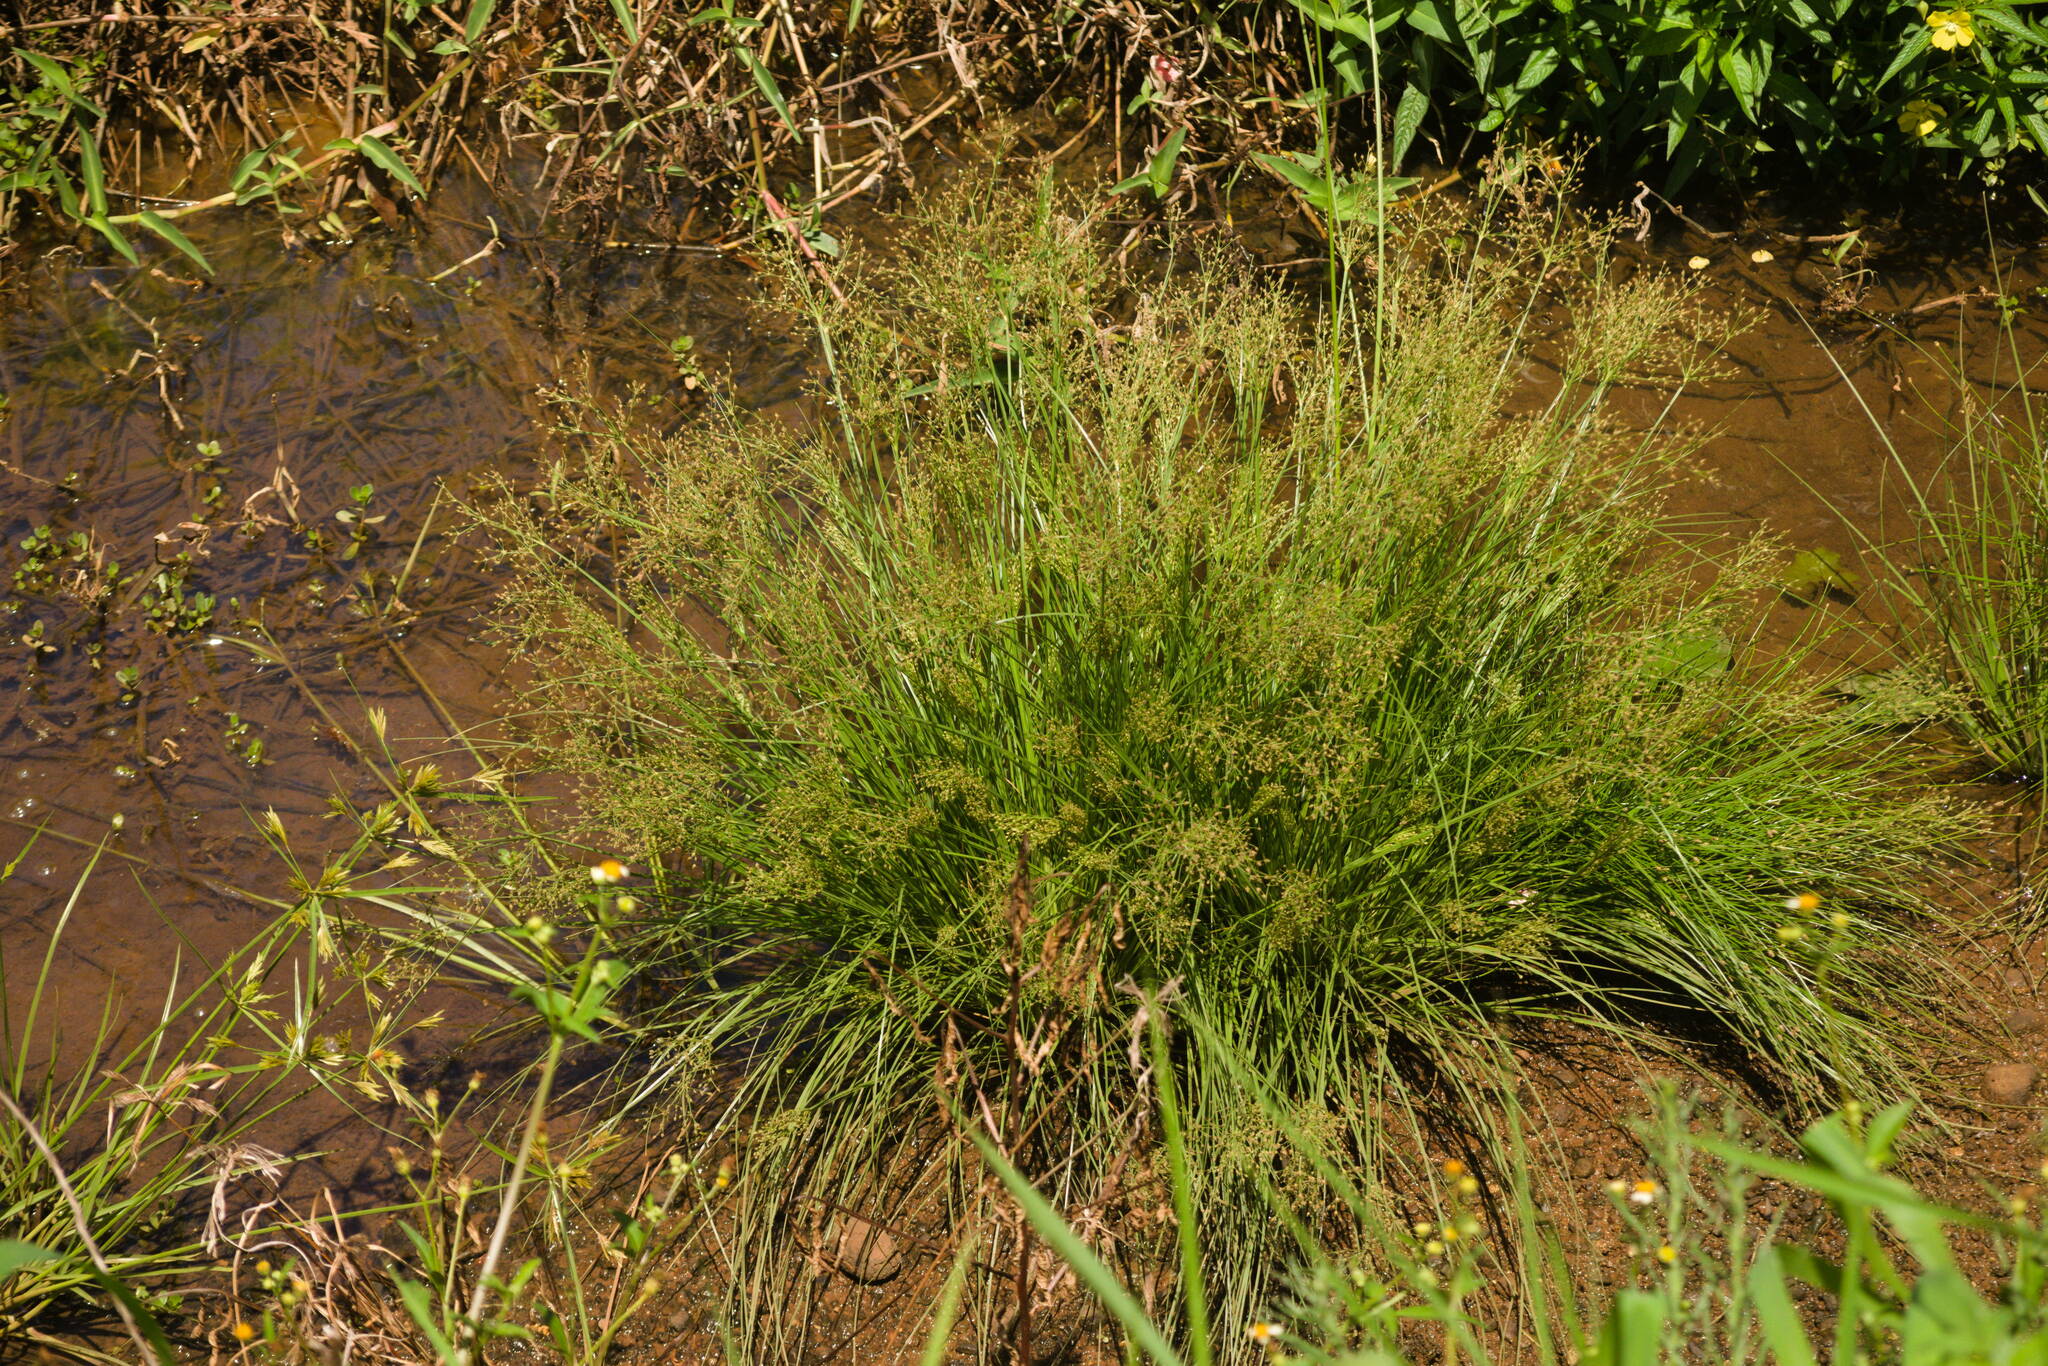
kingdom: Plantae
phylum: Tracheophyta
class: Liliopsida
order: Poales
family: Cyperaceae
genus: Fimbristylis
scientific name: Fimbristylis littoralis
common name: Fimbry
